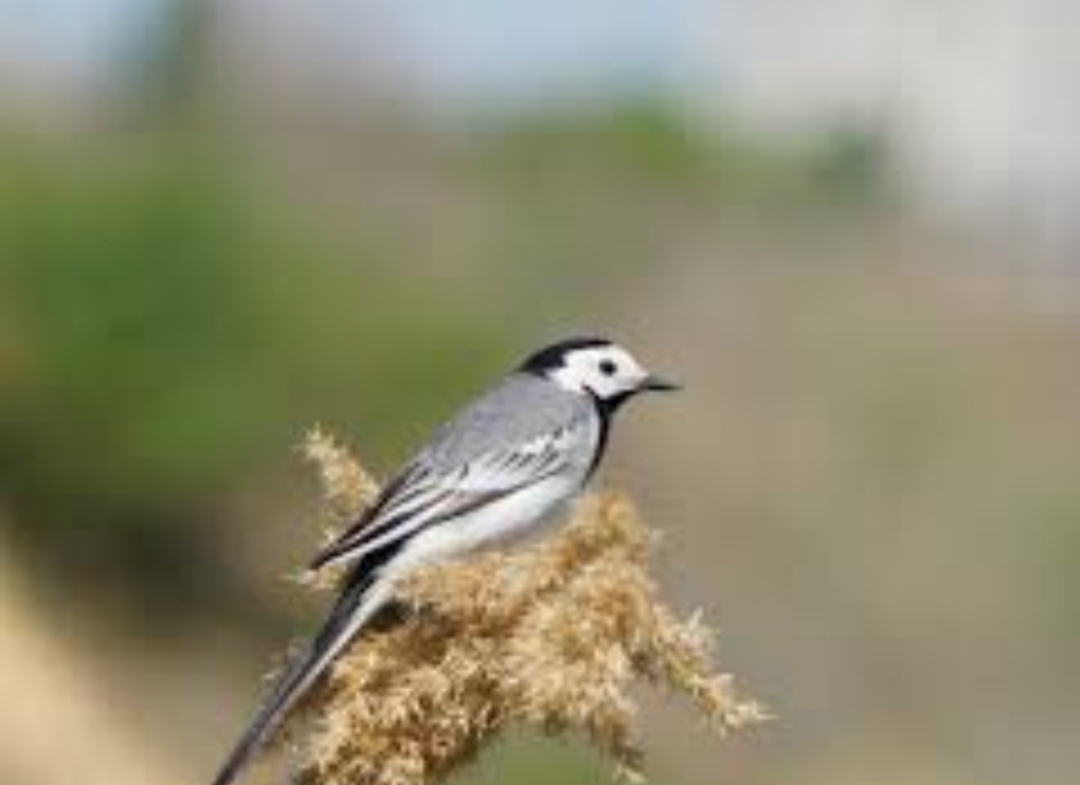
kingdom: Animalia
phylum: Chordata
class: Aves
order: Passeriformes
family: Motacillidae
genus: Motacilla
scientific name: Motacilla alba
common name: White wagtail
